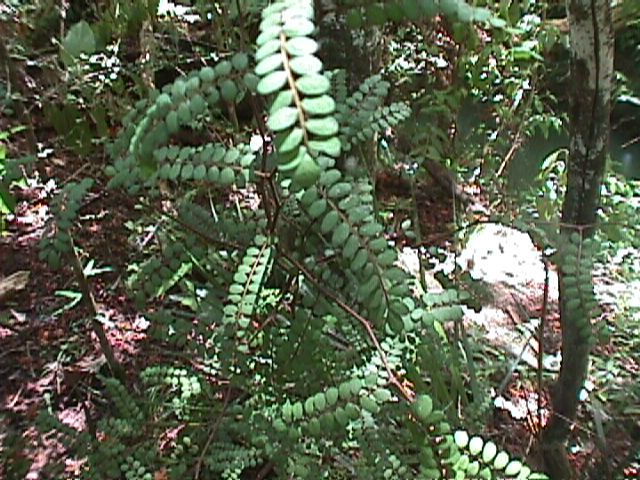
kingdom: Plantae
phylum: Tracheophyta
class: Magnoliopsida
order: Fabales
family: Fabaceae
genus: Sophora
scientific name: Sophora chathamica
